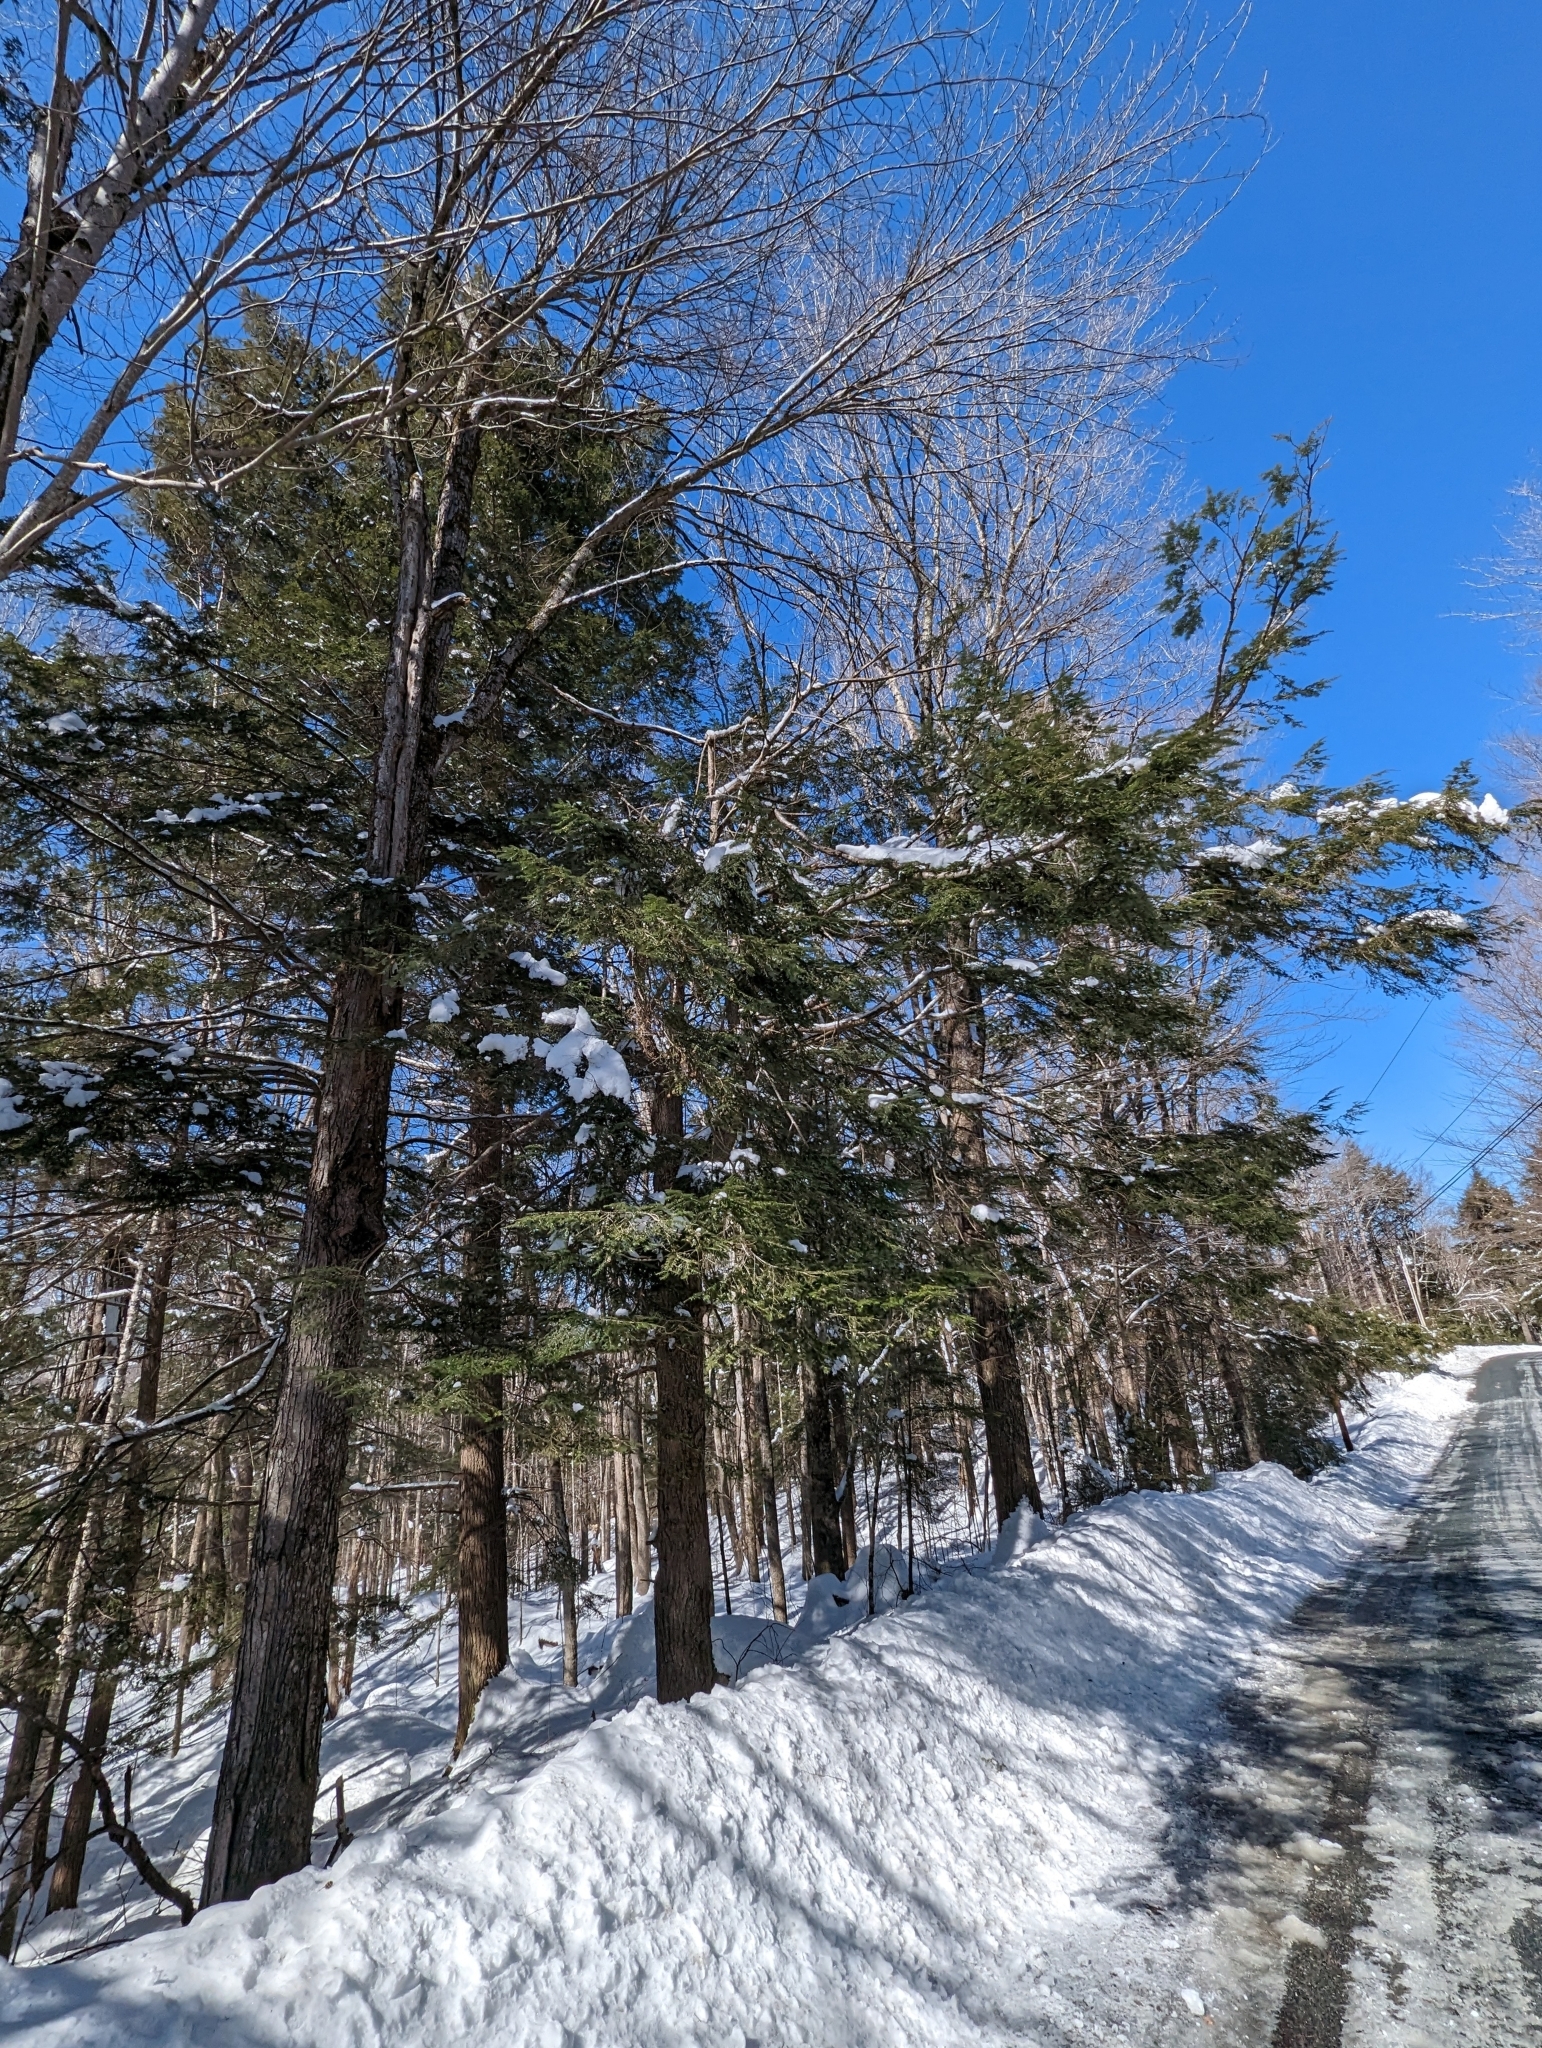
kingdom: Plantae
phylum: Tracheophyta
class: Pinopsida
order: Pinales
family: Pinaceae
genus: Tsuga
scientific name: Tsuga canadensis
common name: Eastern hemlock
